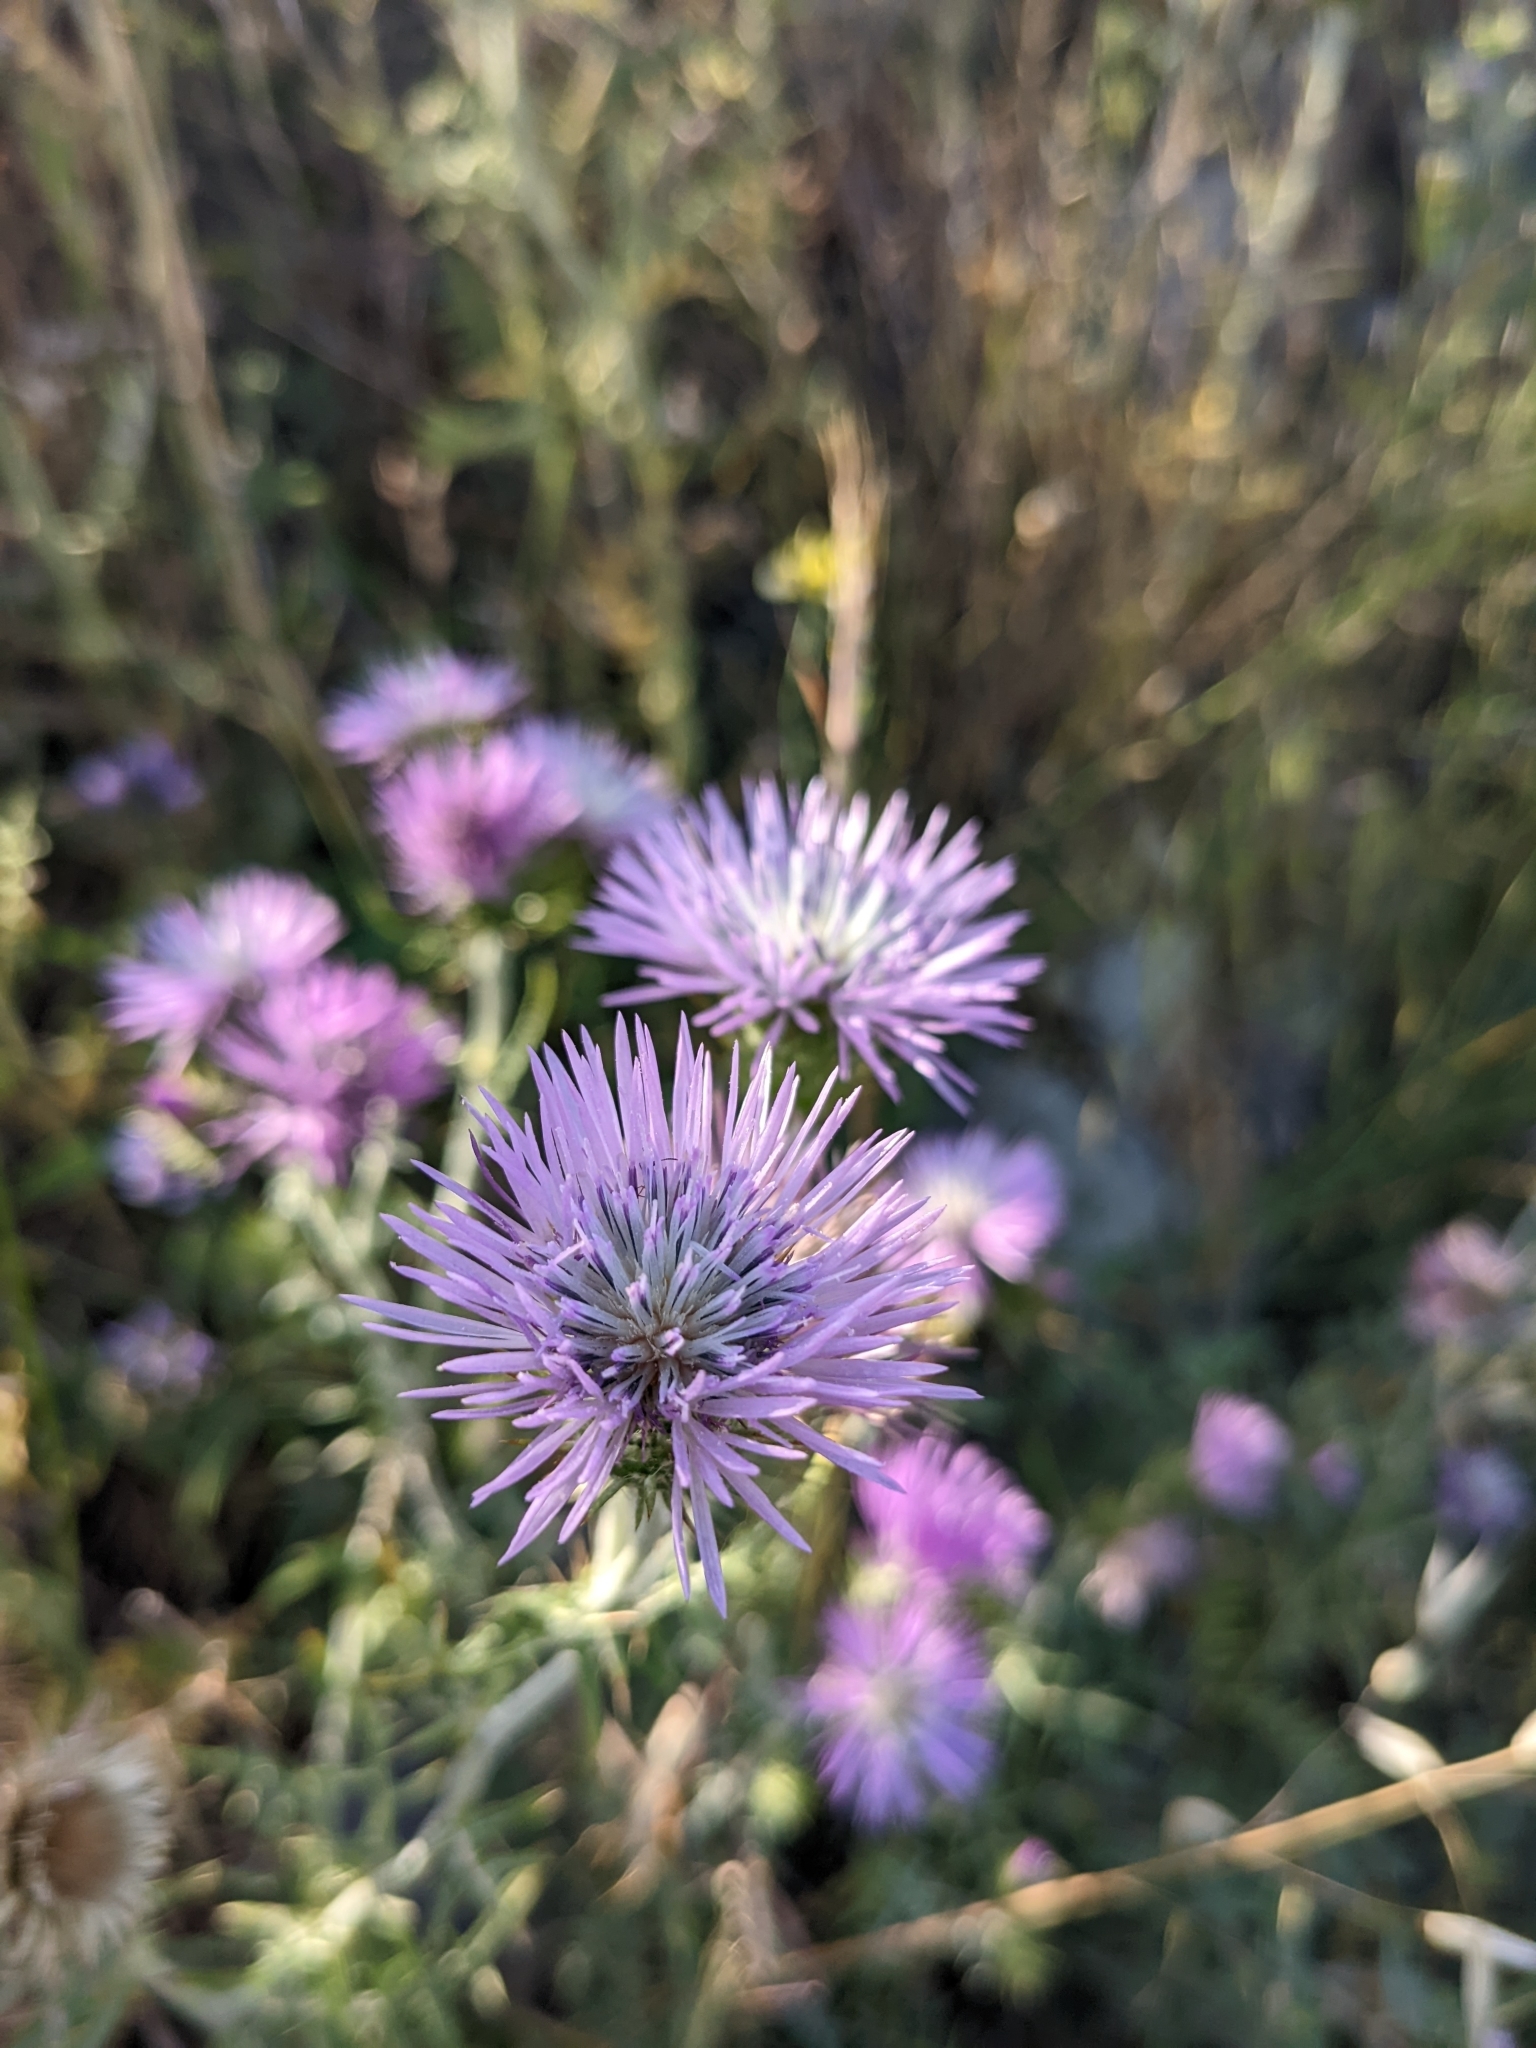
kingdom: Plantae
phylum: Tracheophyta
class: Magnoliopsida
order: Asterales
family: Asteraceae
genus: Galactites
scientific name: Galactites tomentosa
